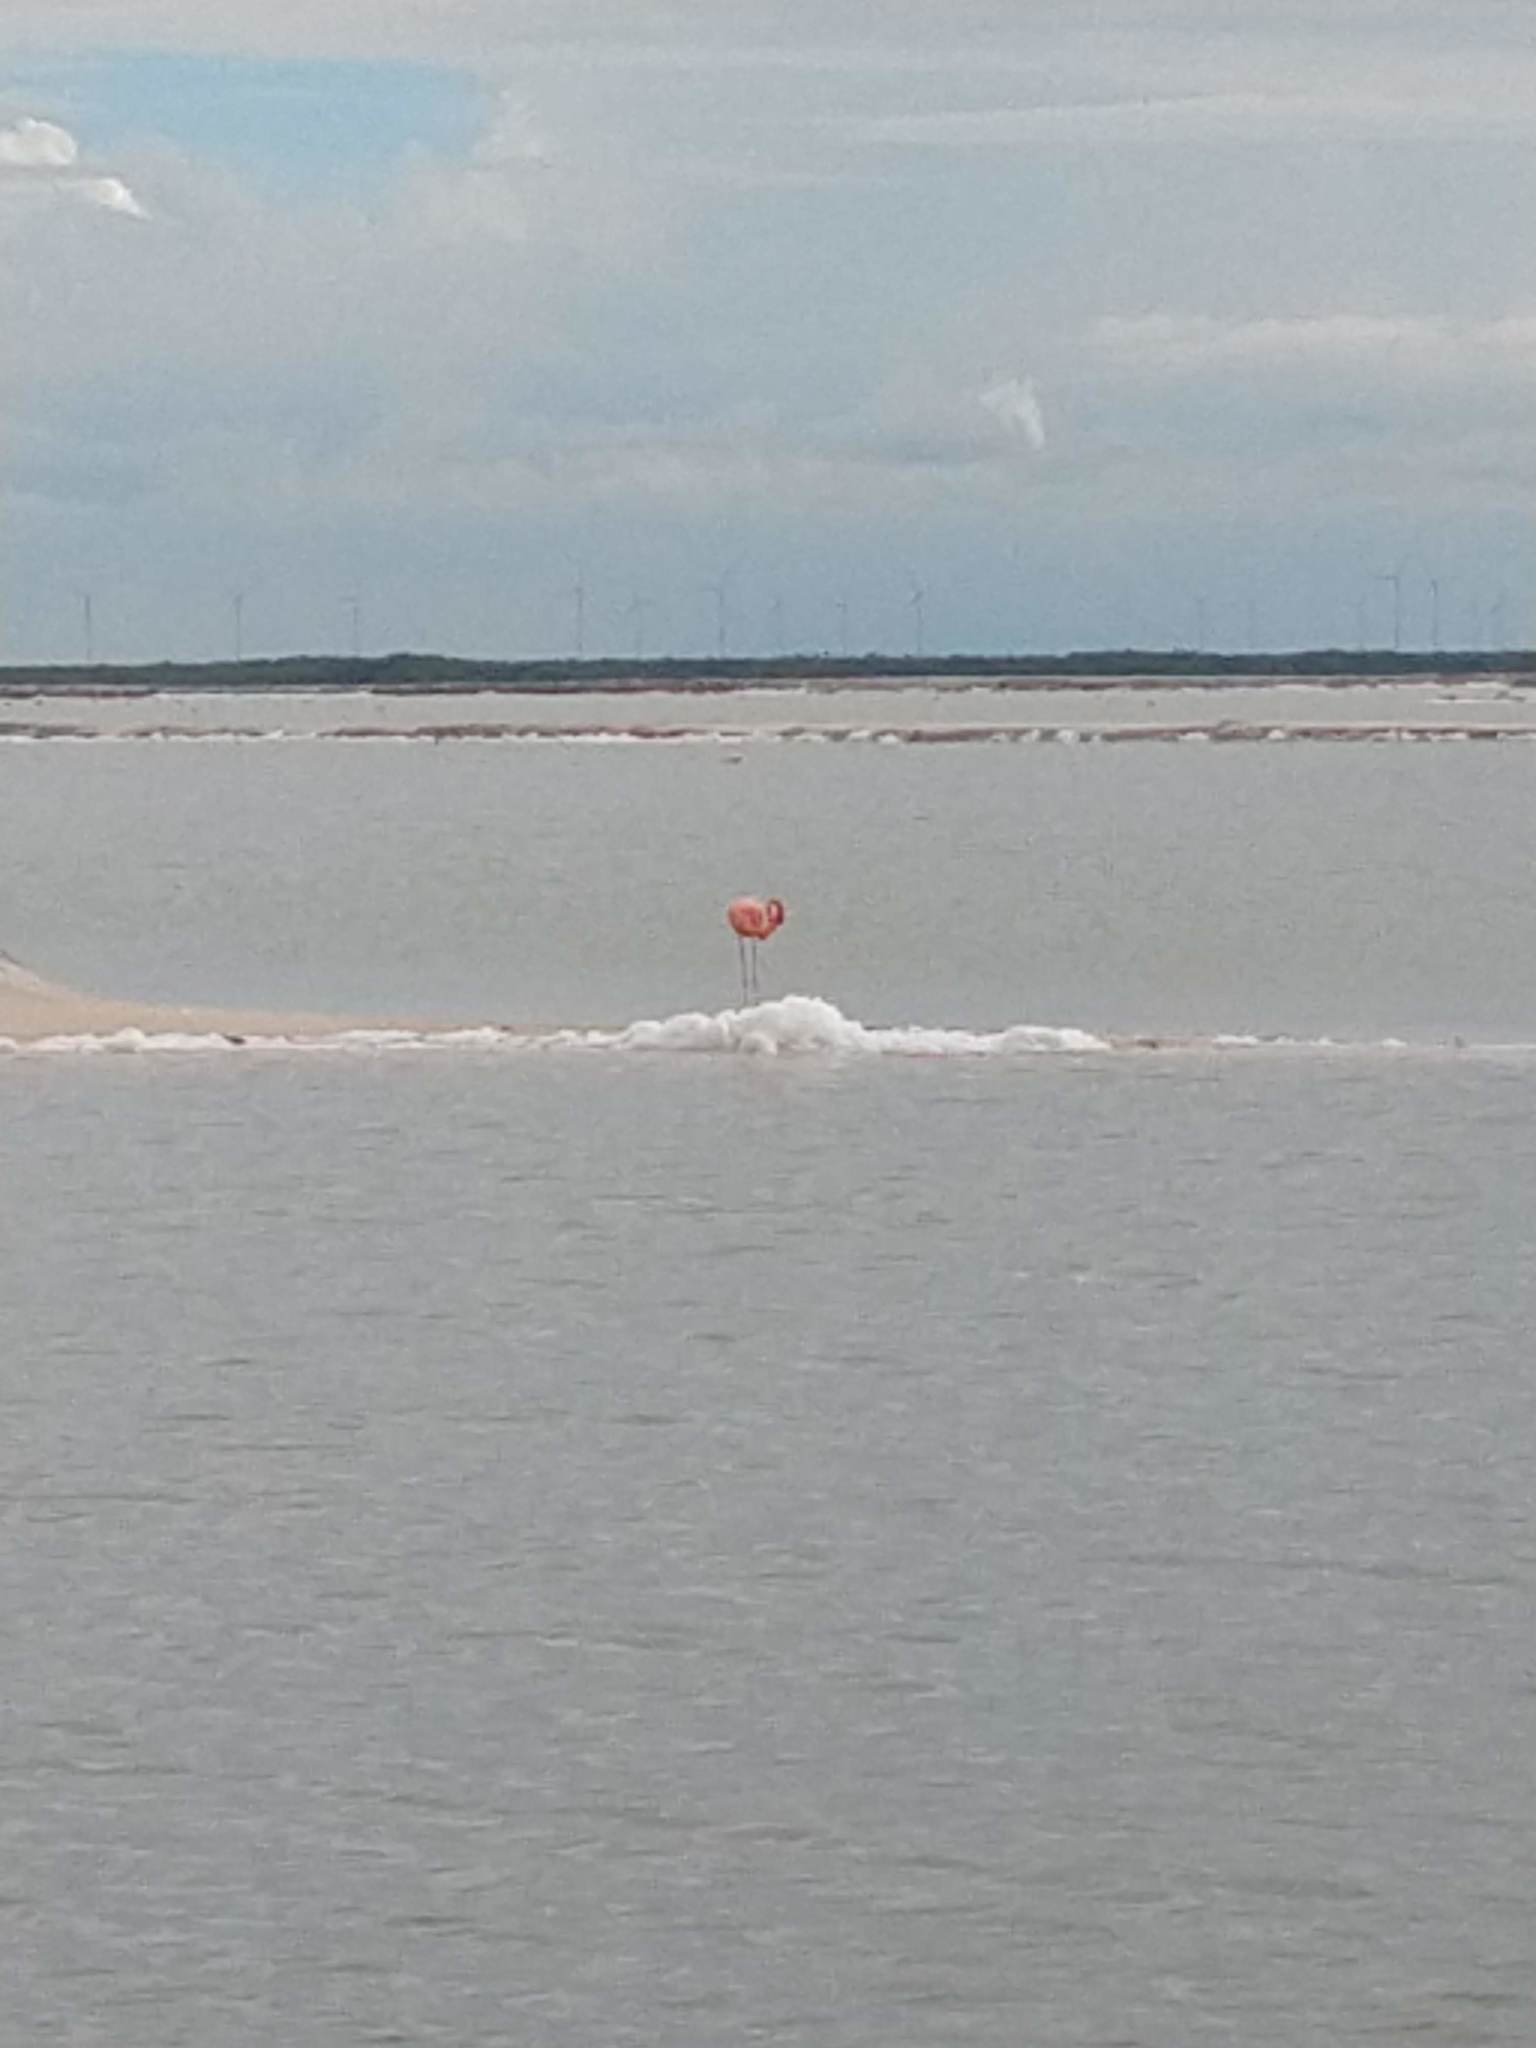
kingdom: Animalia
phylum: Chordata
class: Aves
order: Phoenicopteriformes
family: Phoenicopteridae
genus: Phoenicopterus
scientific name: Phoenicopterus ruber
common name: American flamingo
